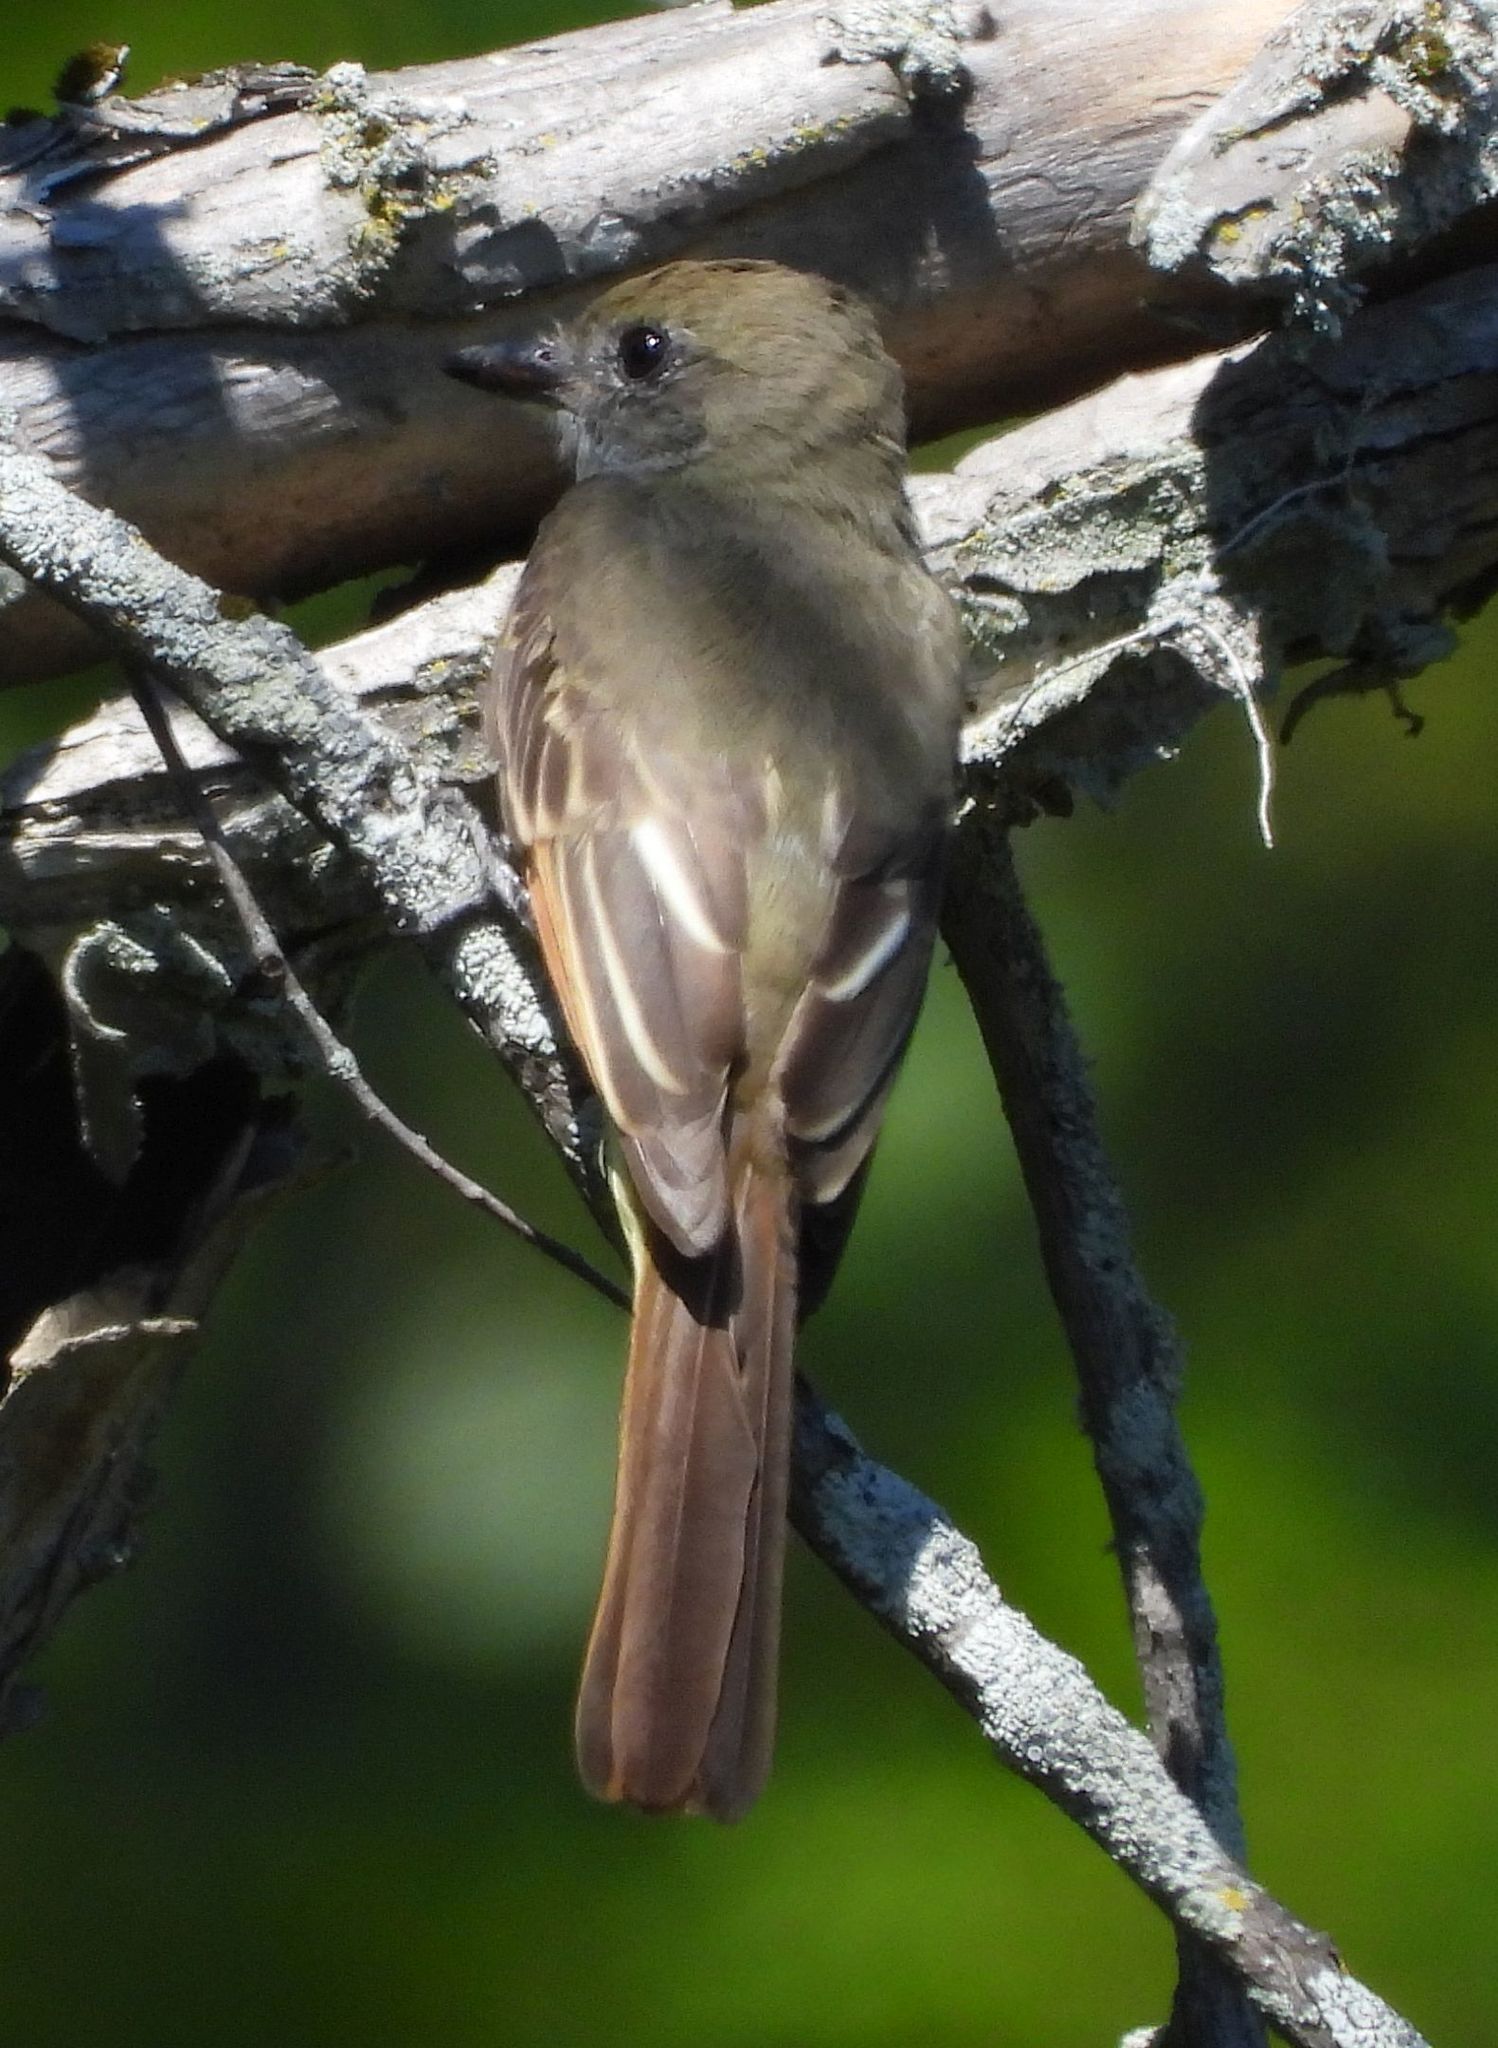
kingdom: Animalia
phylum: Chordata
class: Aves
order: Passeriformes
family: Tyrannidae
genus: Myiarchus
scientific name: Myiarchus crinitus
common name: Great crested flycatcher
